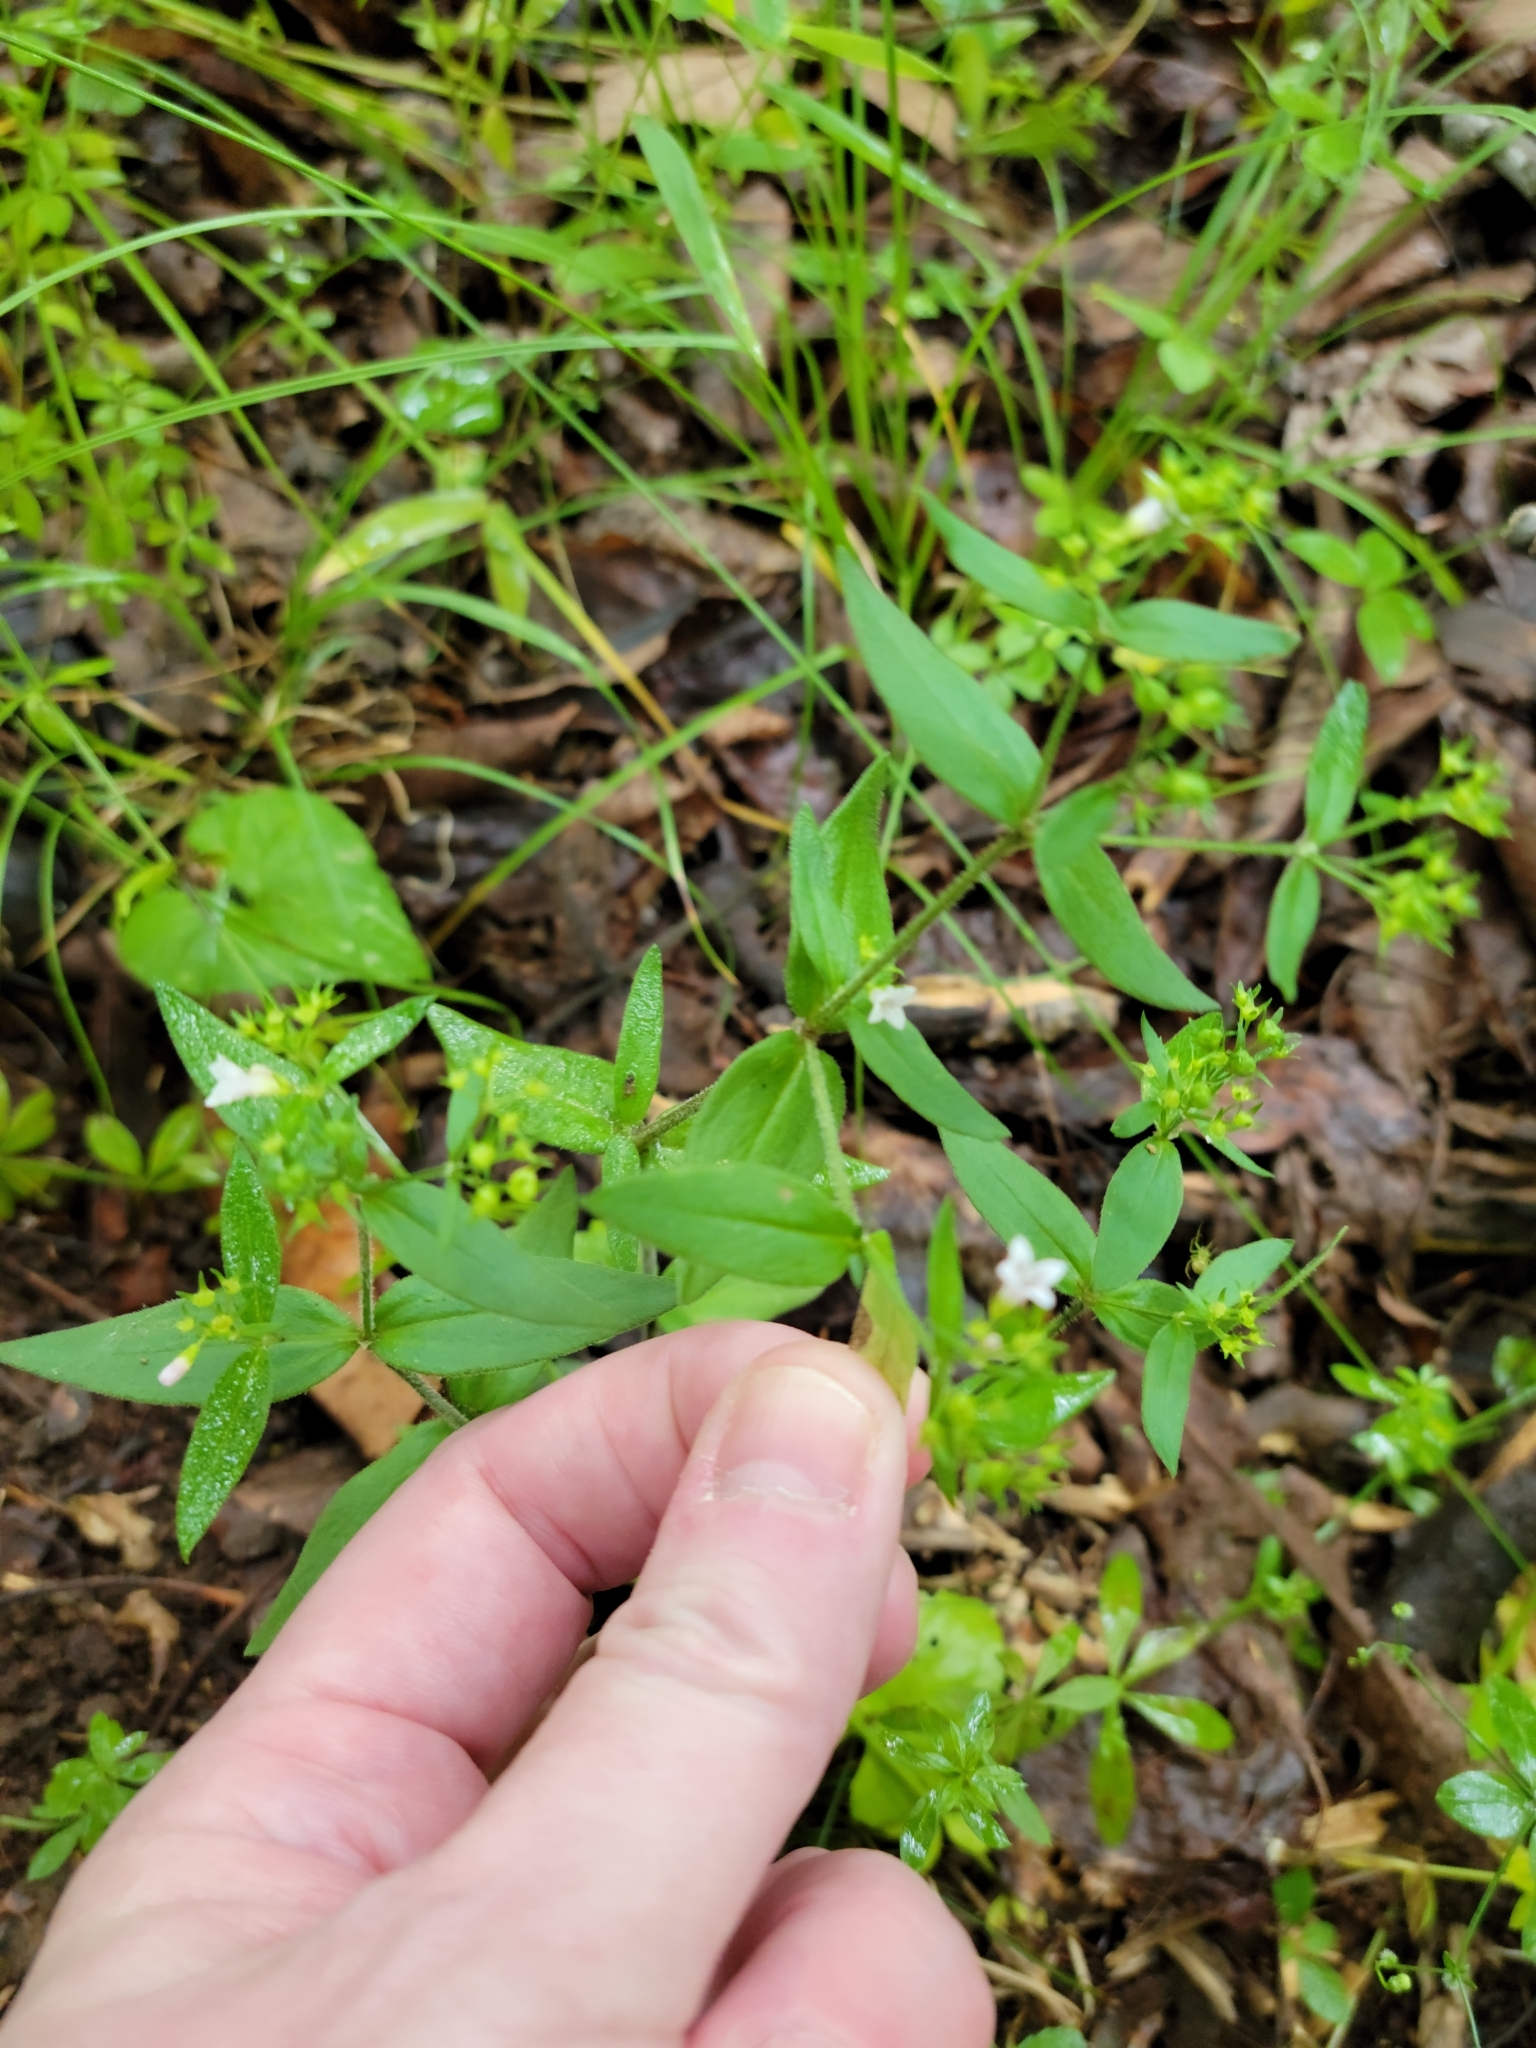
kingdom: Plantae
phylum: Tracheophyta
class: Magnoliopsida
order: Gentianales
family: Rubiaceae
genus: Houstonia
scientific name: Houstonia purpurea
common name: Summer bluet
